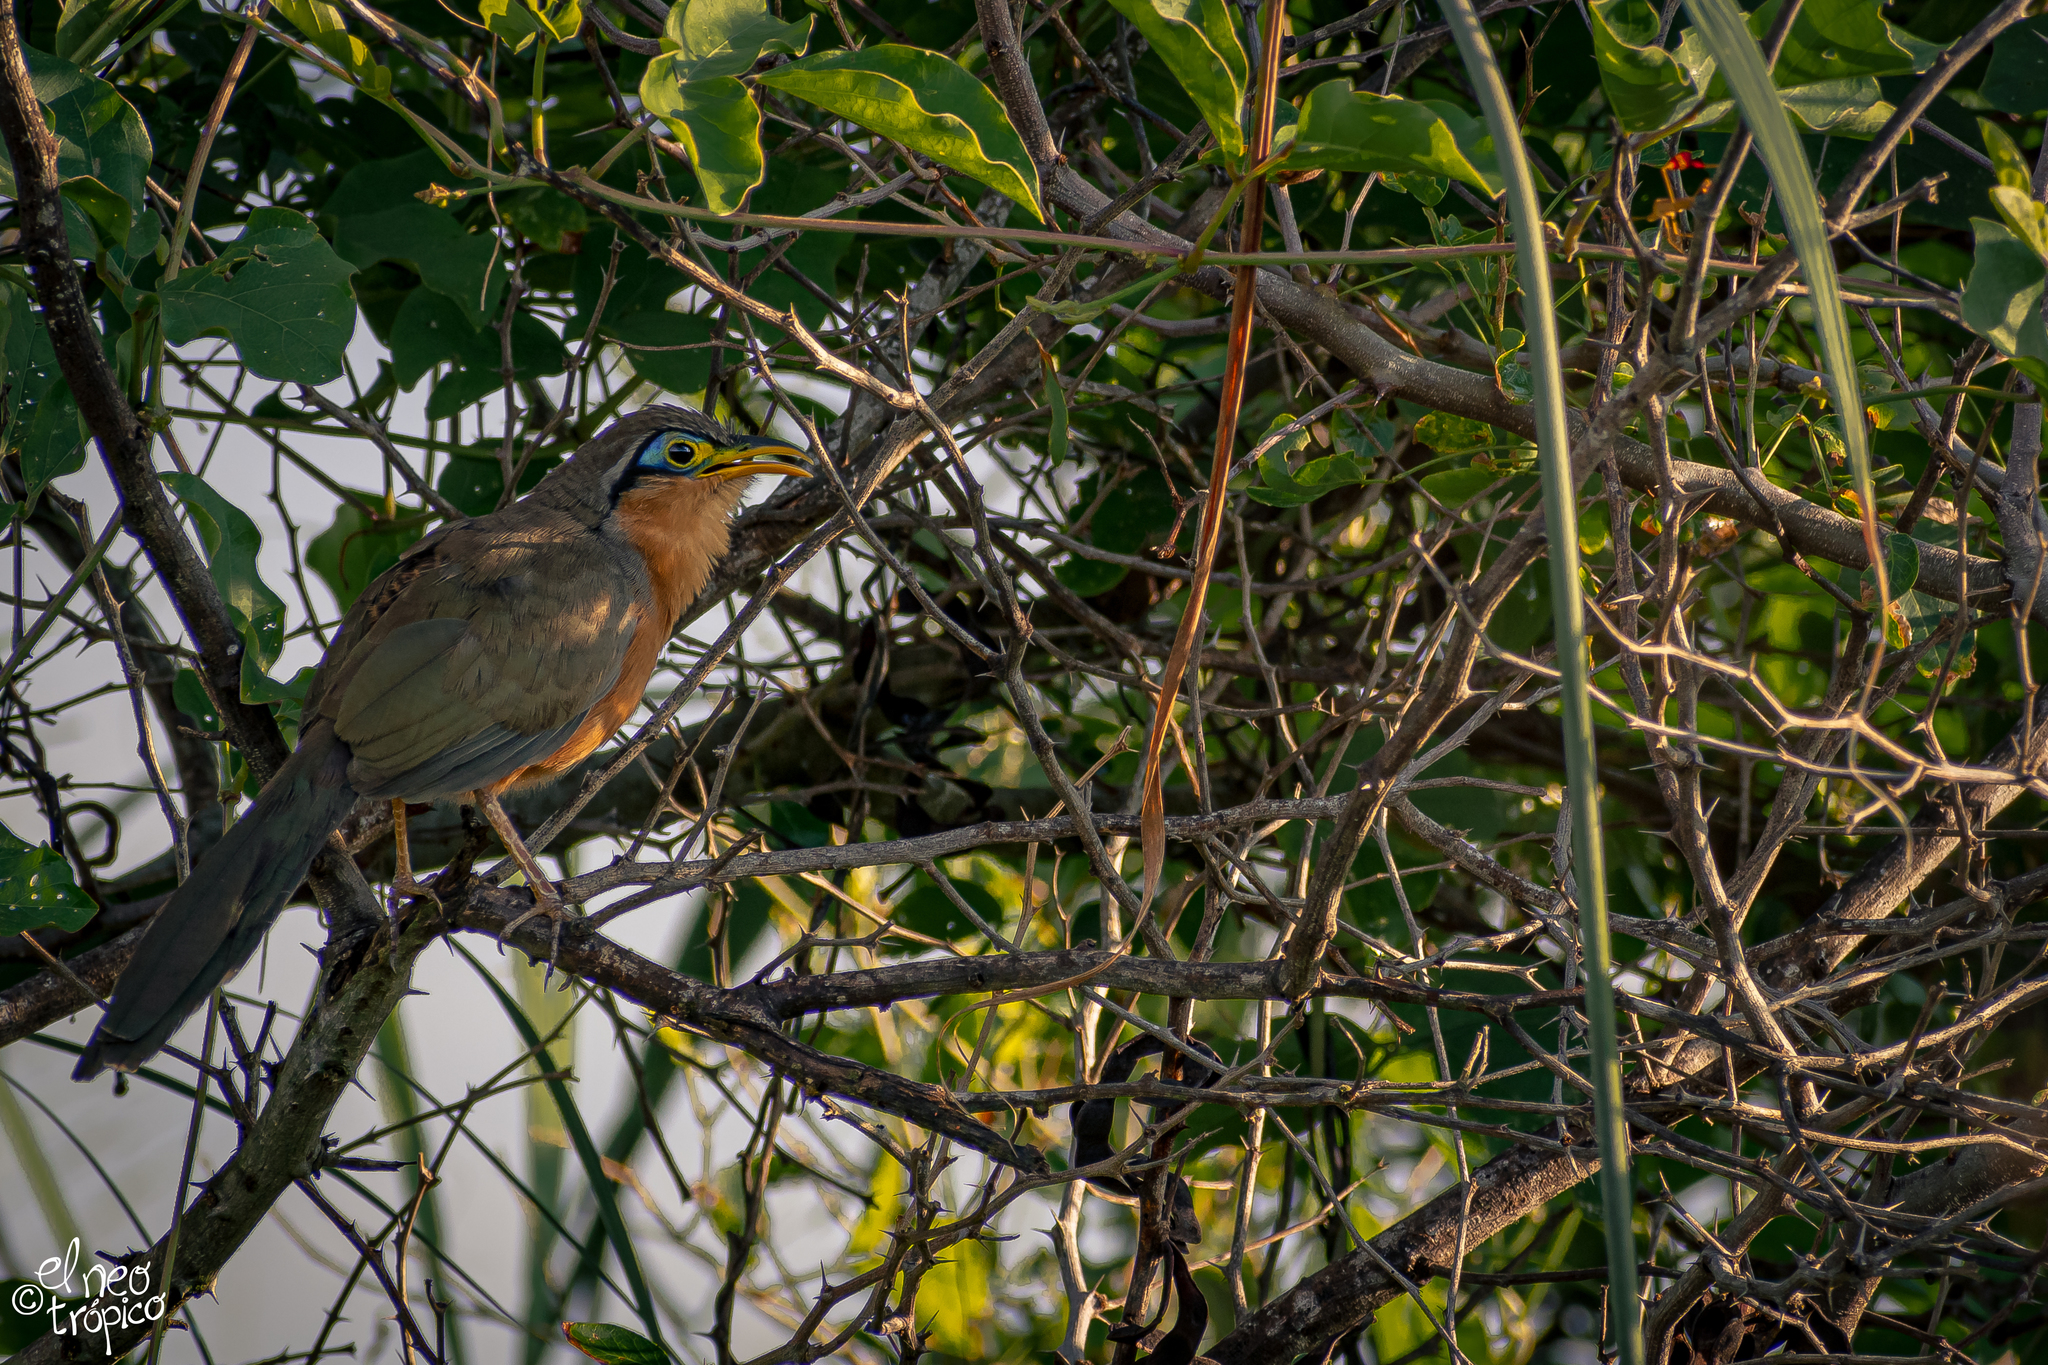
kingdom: Animalia
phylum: Chordata
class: Aves
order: Cuculiformes
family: Cuculidae
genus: Morococcyx
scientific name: Morococcyx erythropygus
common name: Lesser ground-cuckoo
